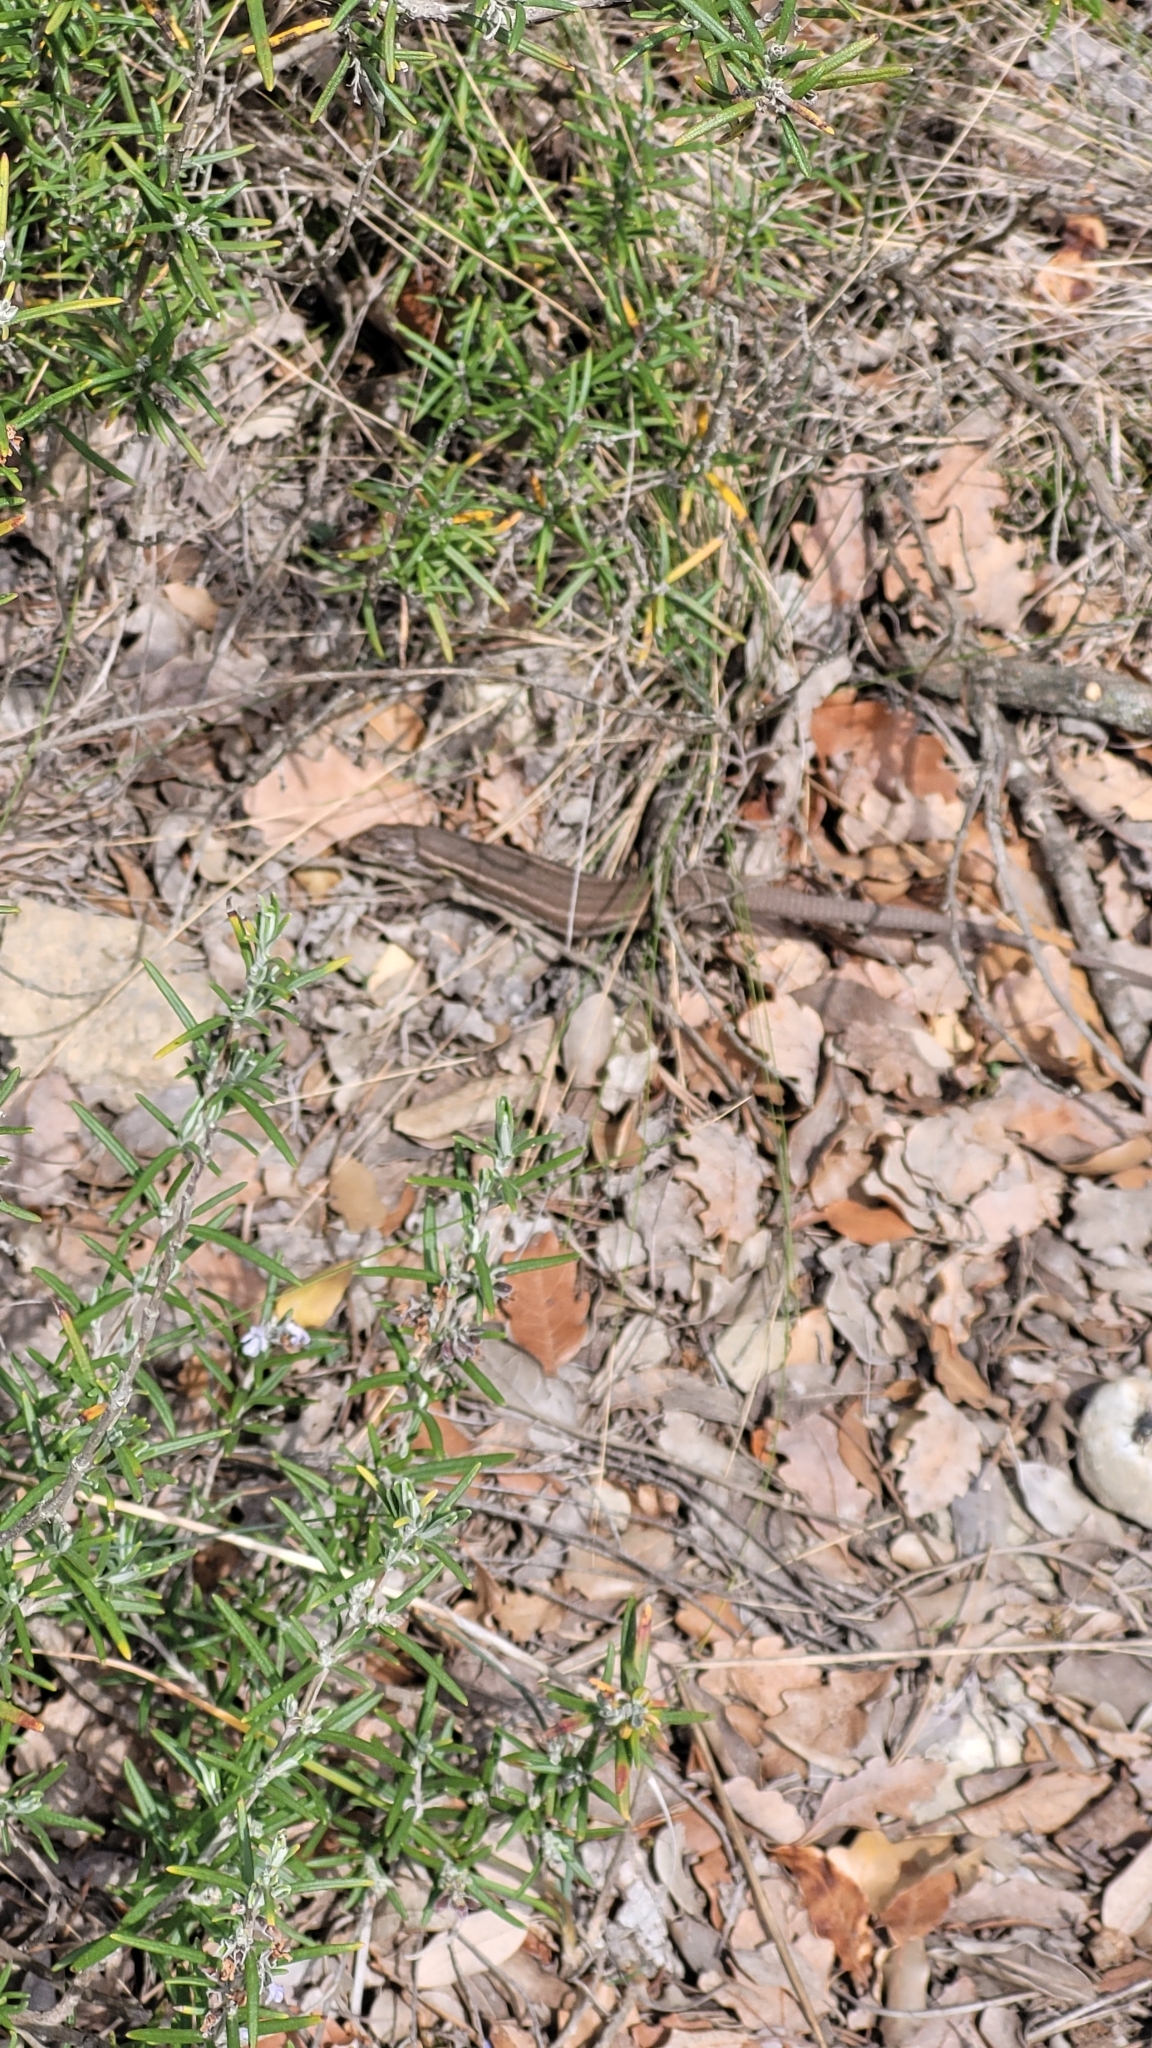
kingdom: Animalia
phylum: Chordata
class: Squamata
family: Lacertidae
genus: Psammodromus
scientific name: Psammodromus algirus
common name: Algerian psammodromus
